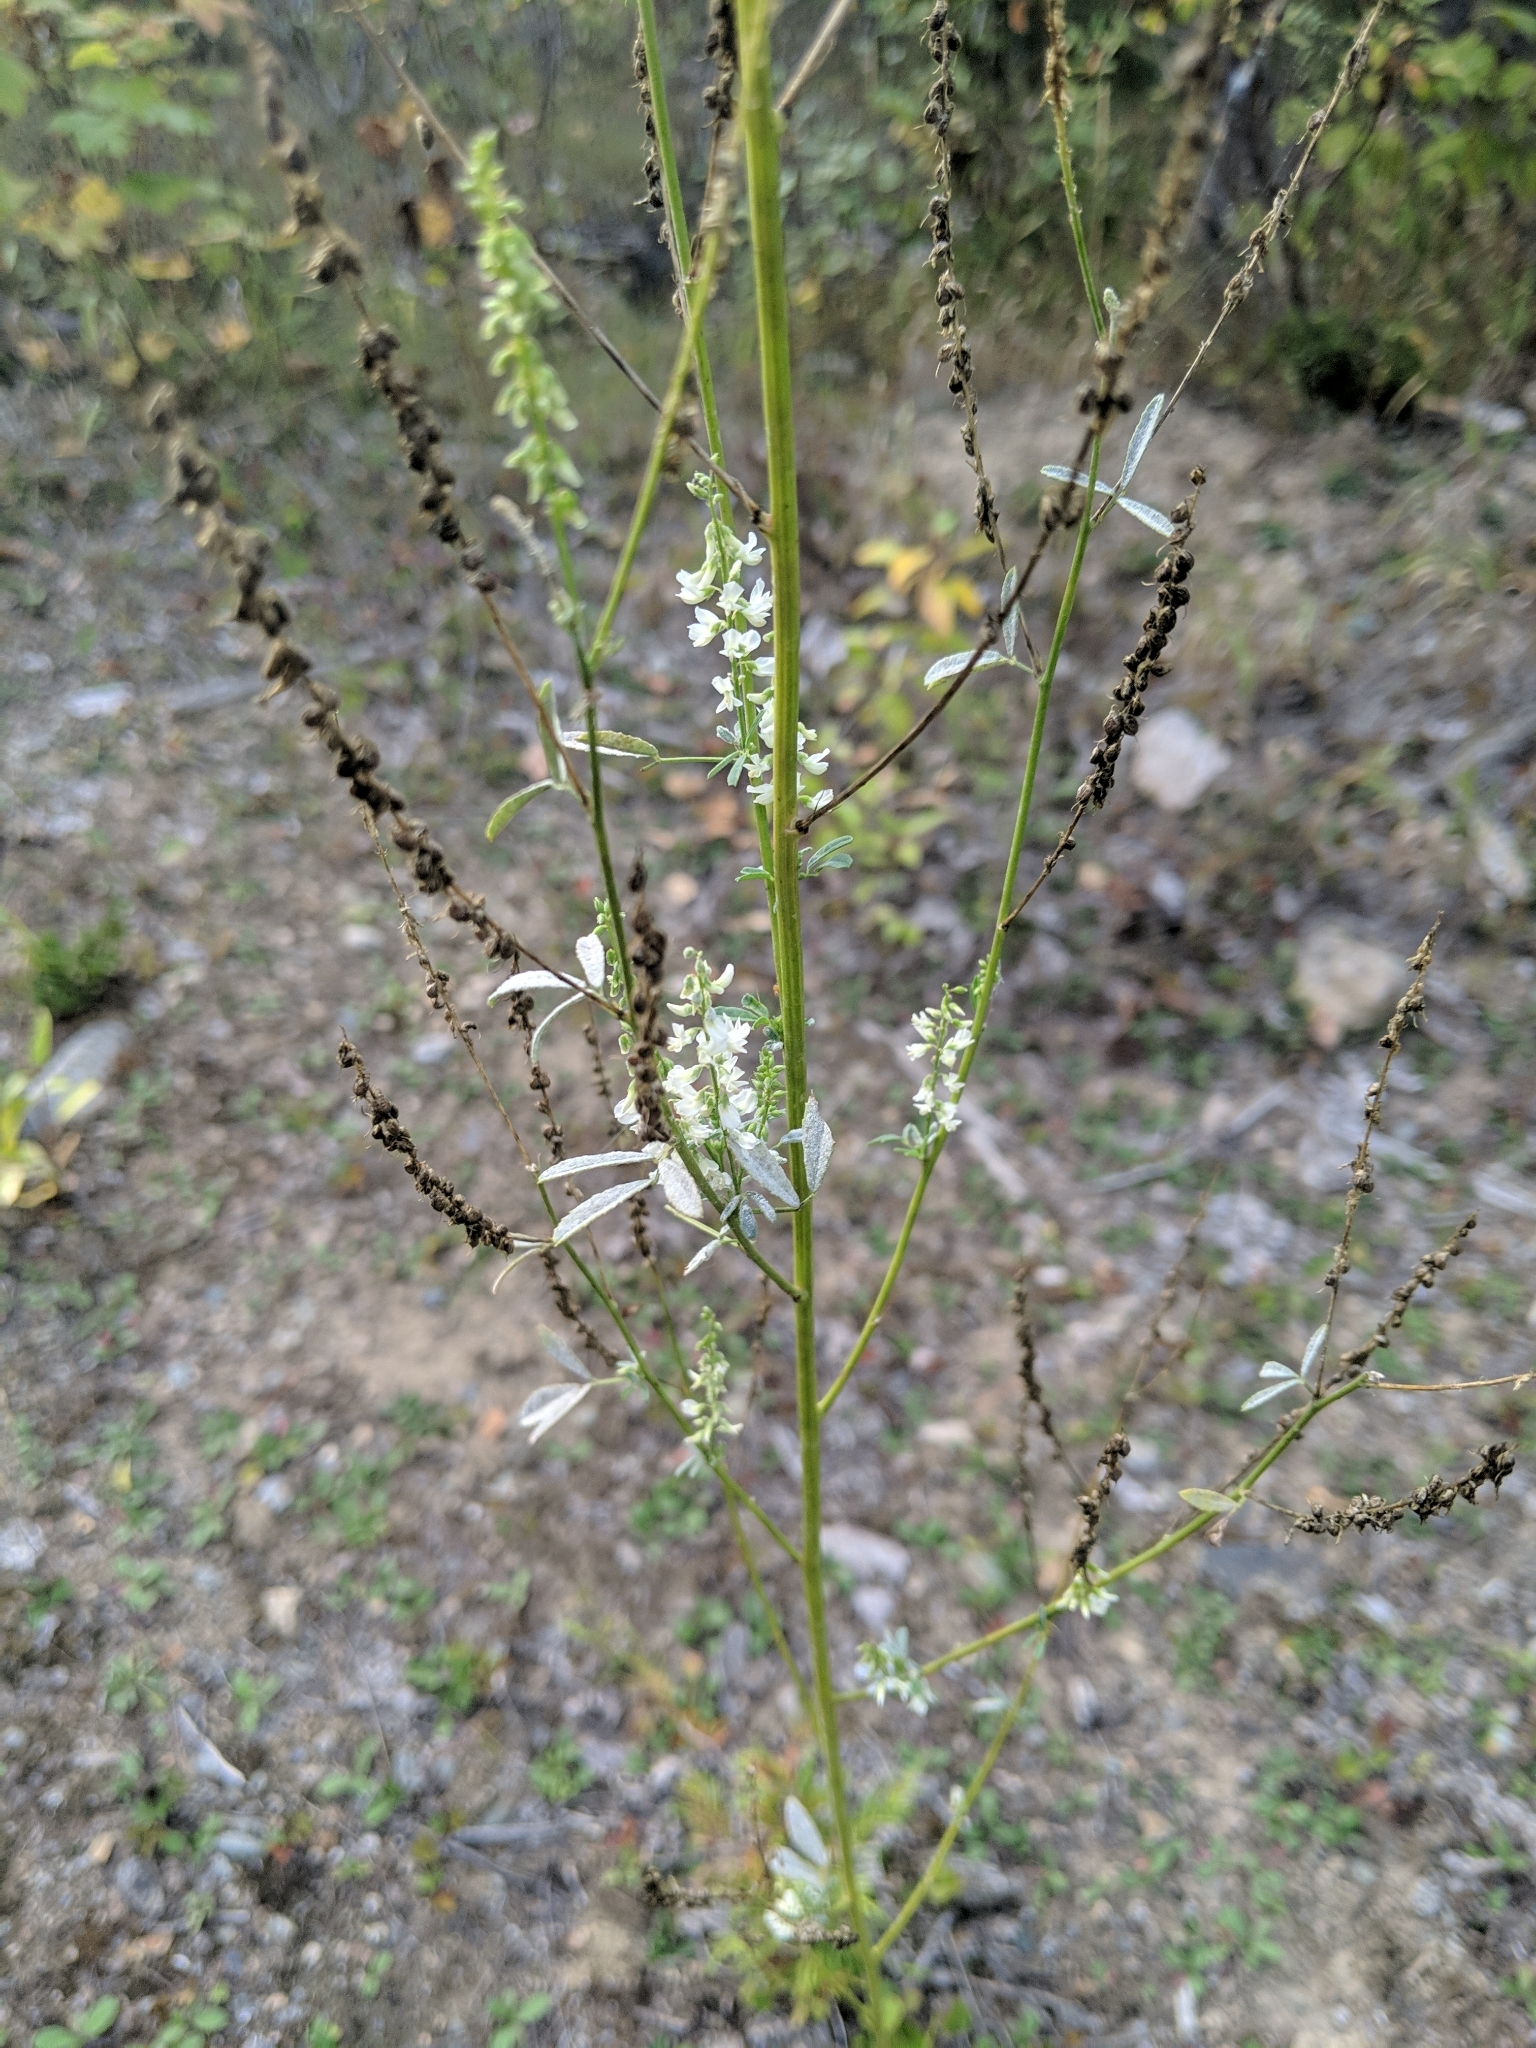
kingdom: Plantae
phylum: Tracheophyta
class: Magnoliopsida
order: Fabales
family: Fabaceae
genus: Melilotus
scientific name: Melilotus albus
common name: White melilot
